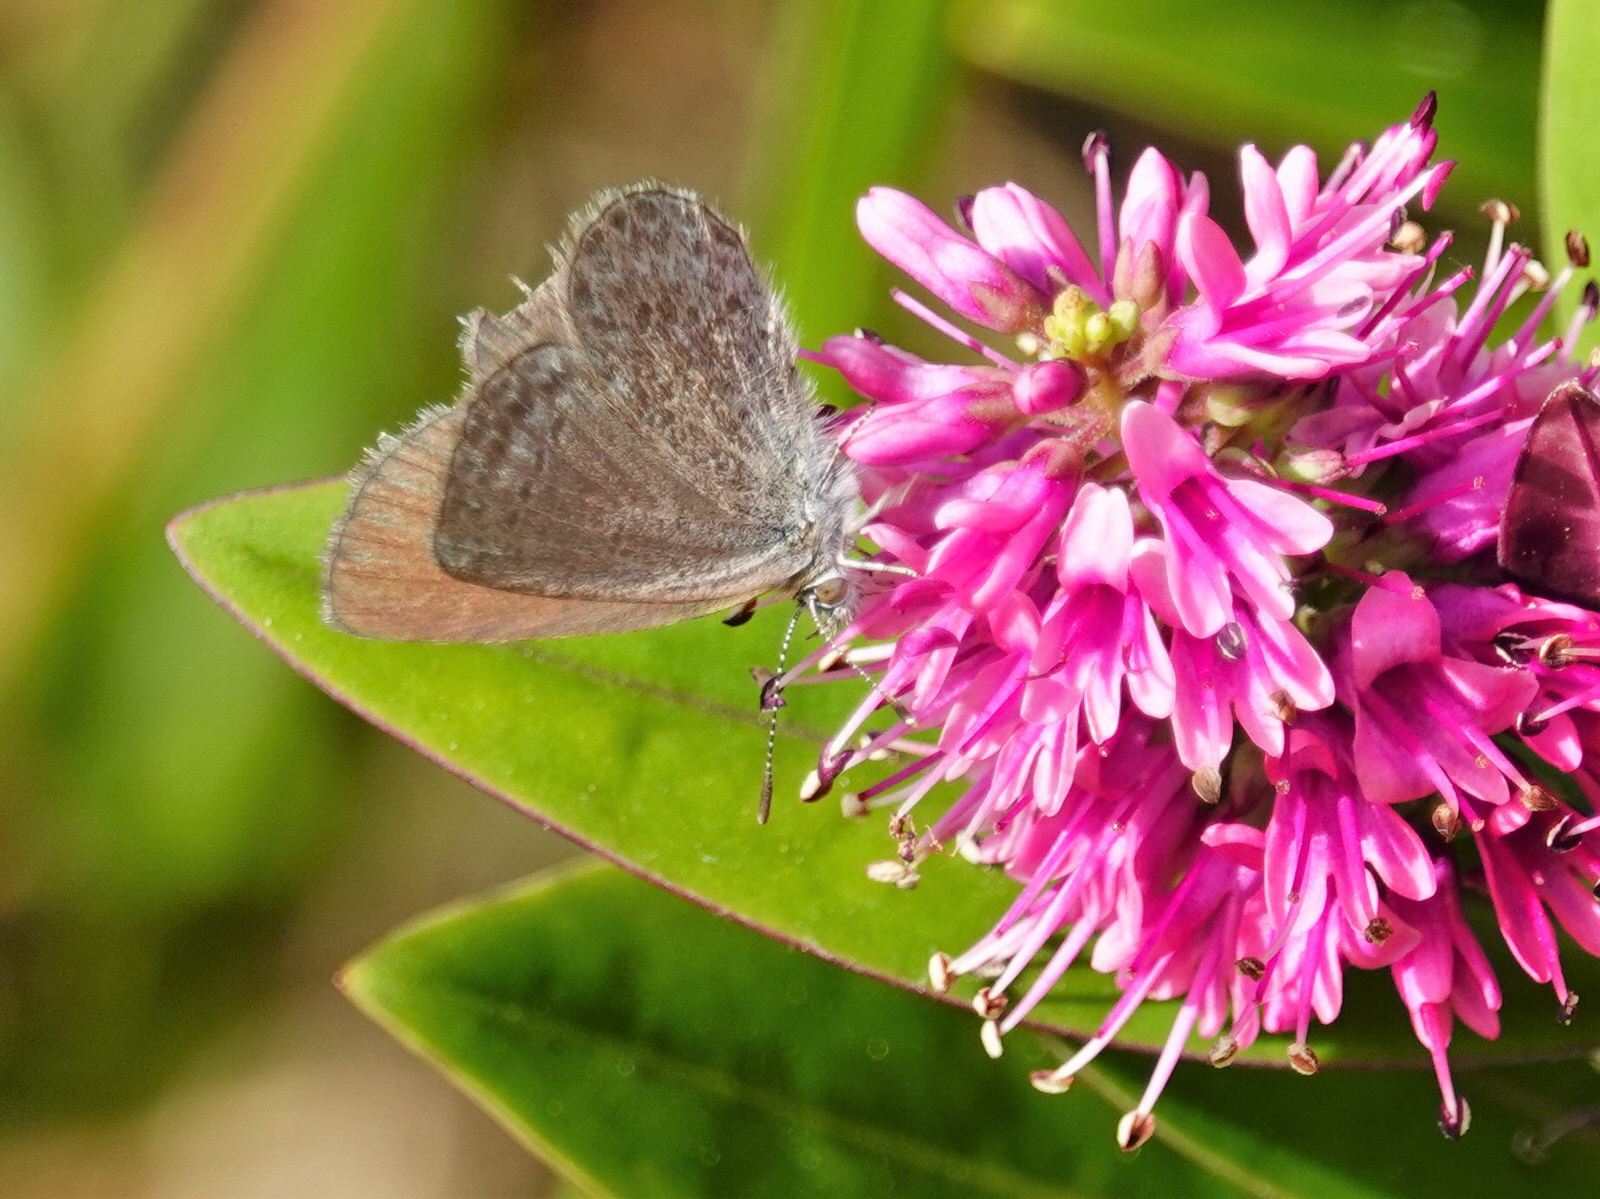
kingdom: Animalia
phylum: Arthropoda
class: Insecta
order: Lepidoptera
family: Lycaenidae
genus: Zizina
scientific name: Zizina labradus
